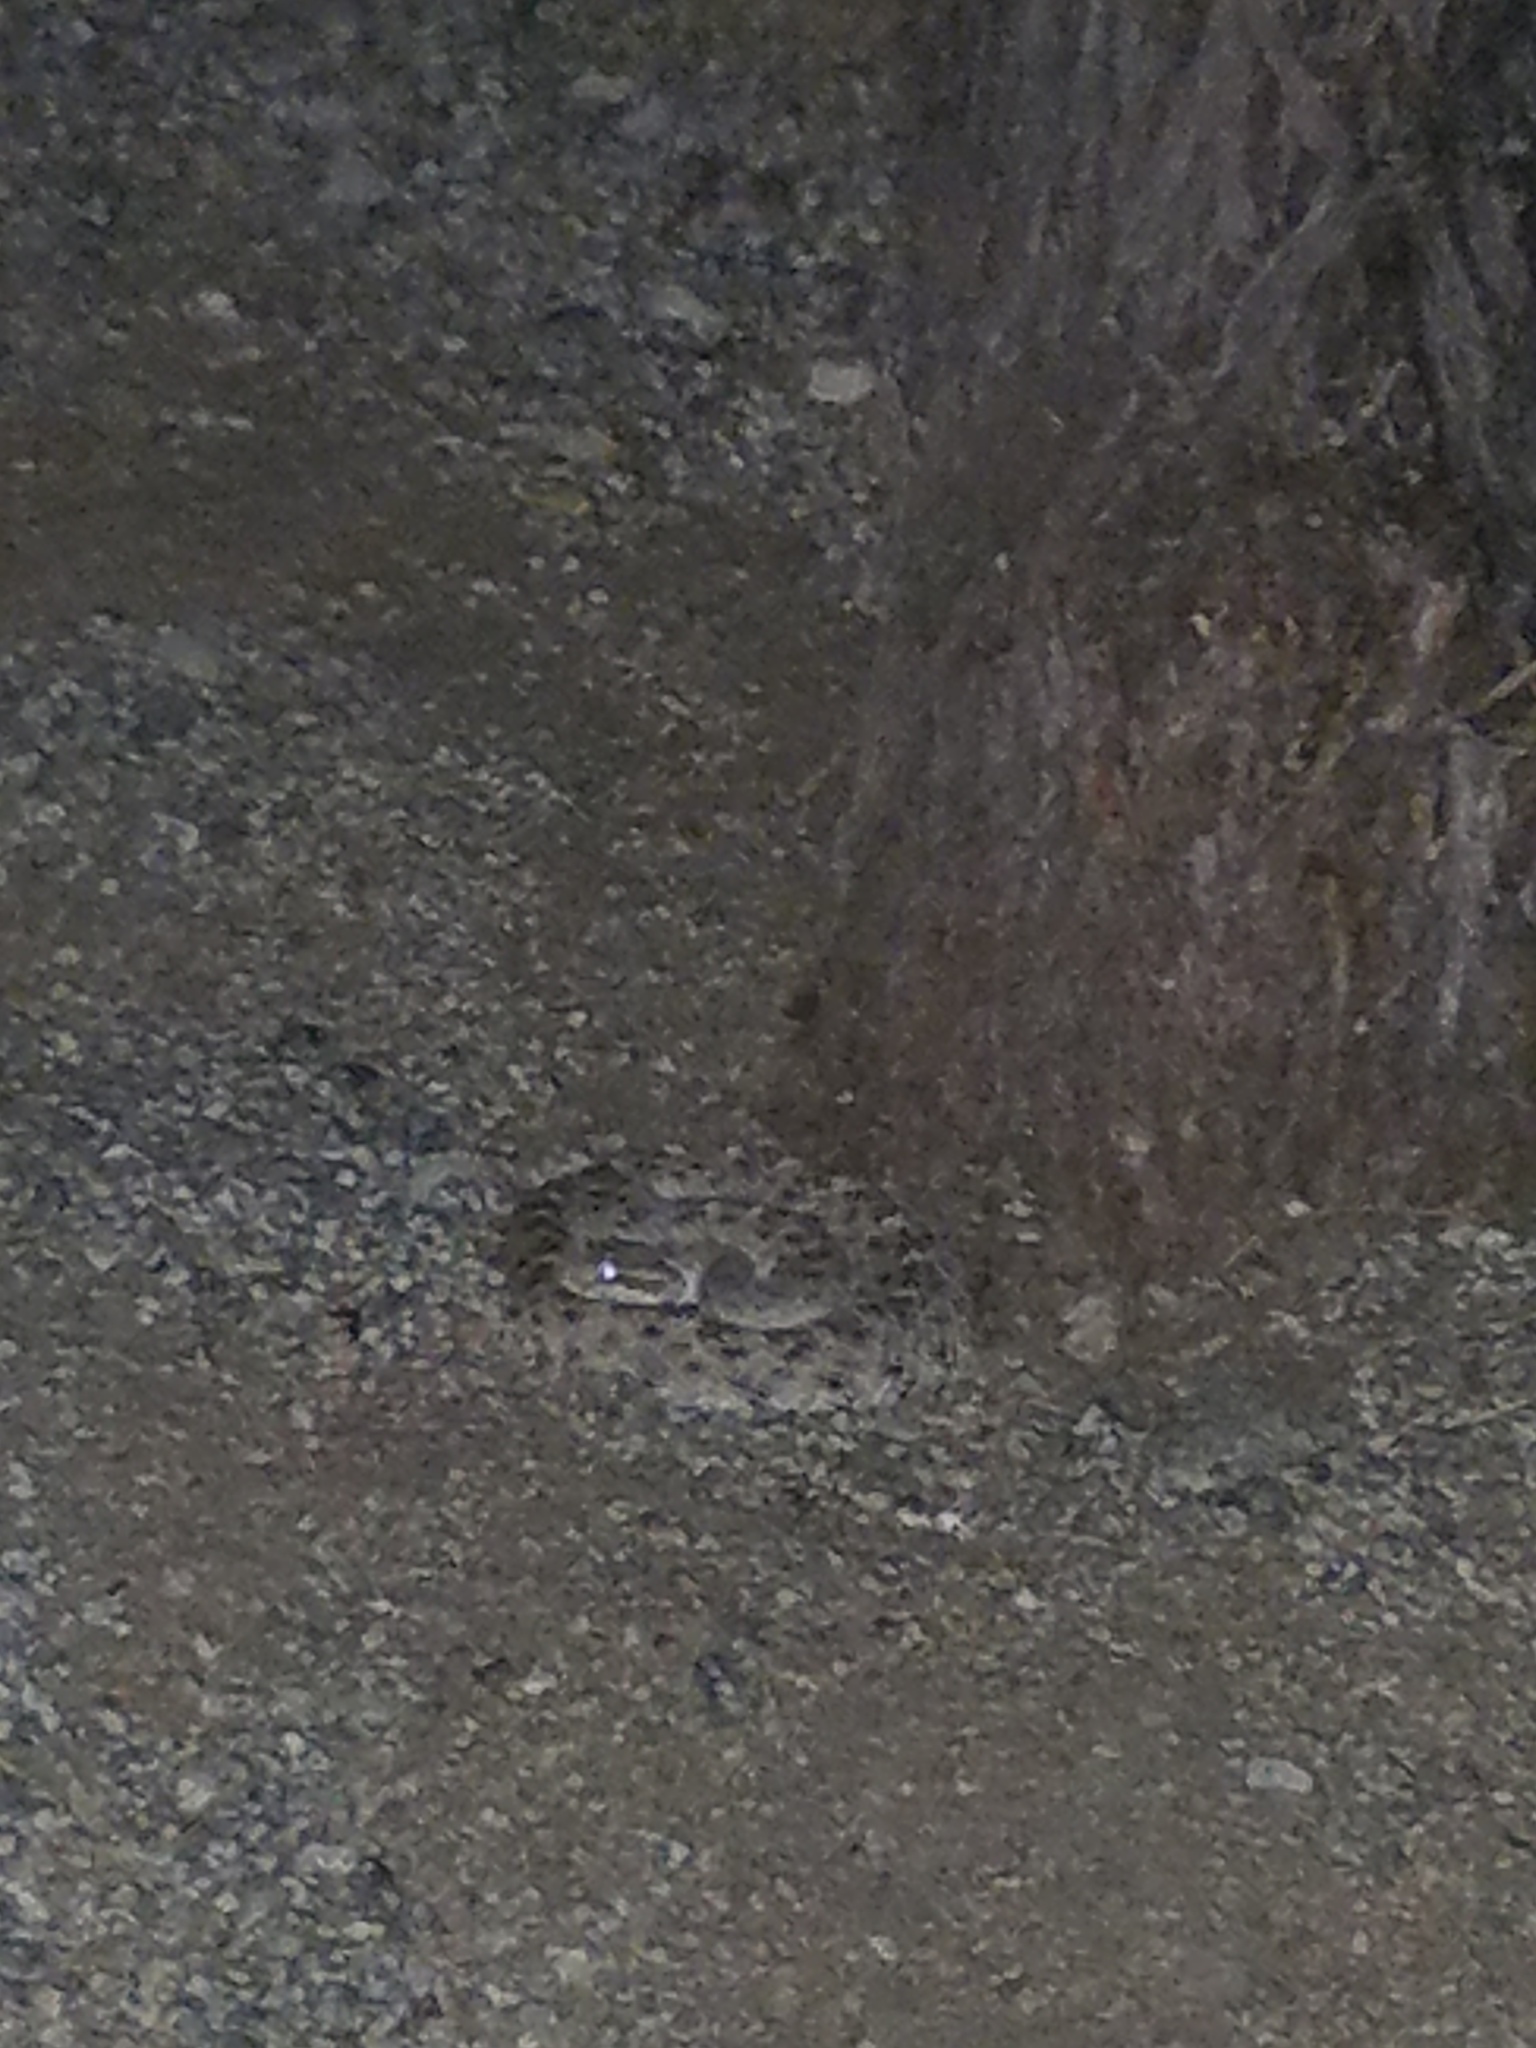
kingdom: Animalia
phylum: Chordata
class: Squamata
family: Viperidae
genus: Crotalus
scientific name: Crotalus cerastes
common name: Sidewinder
